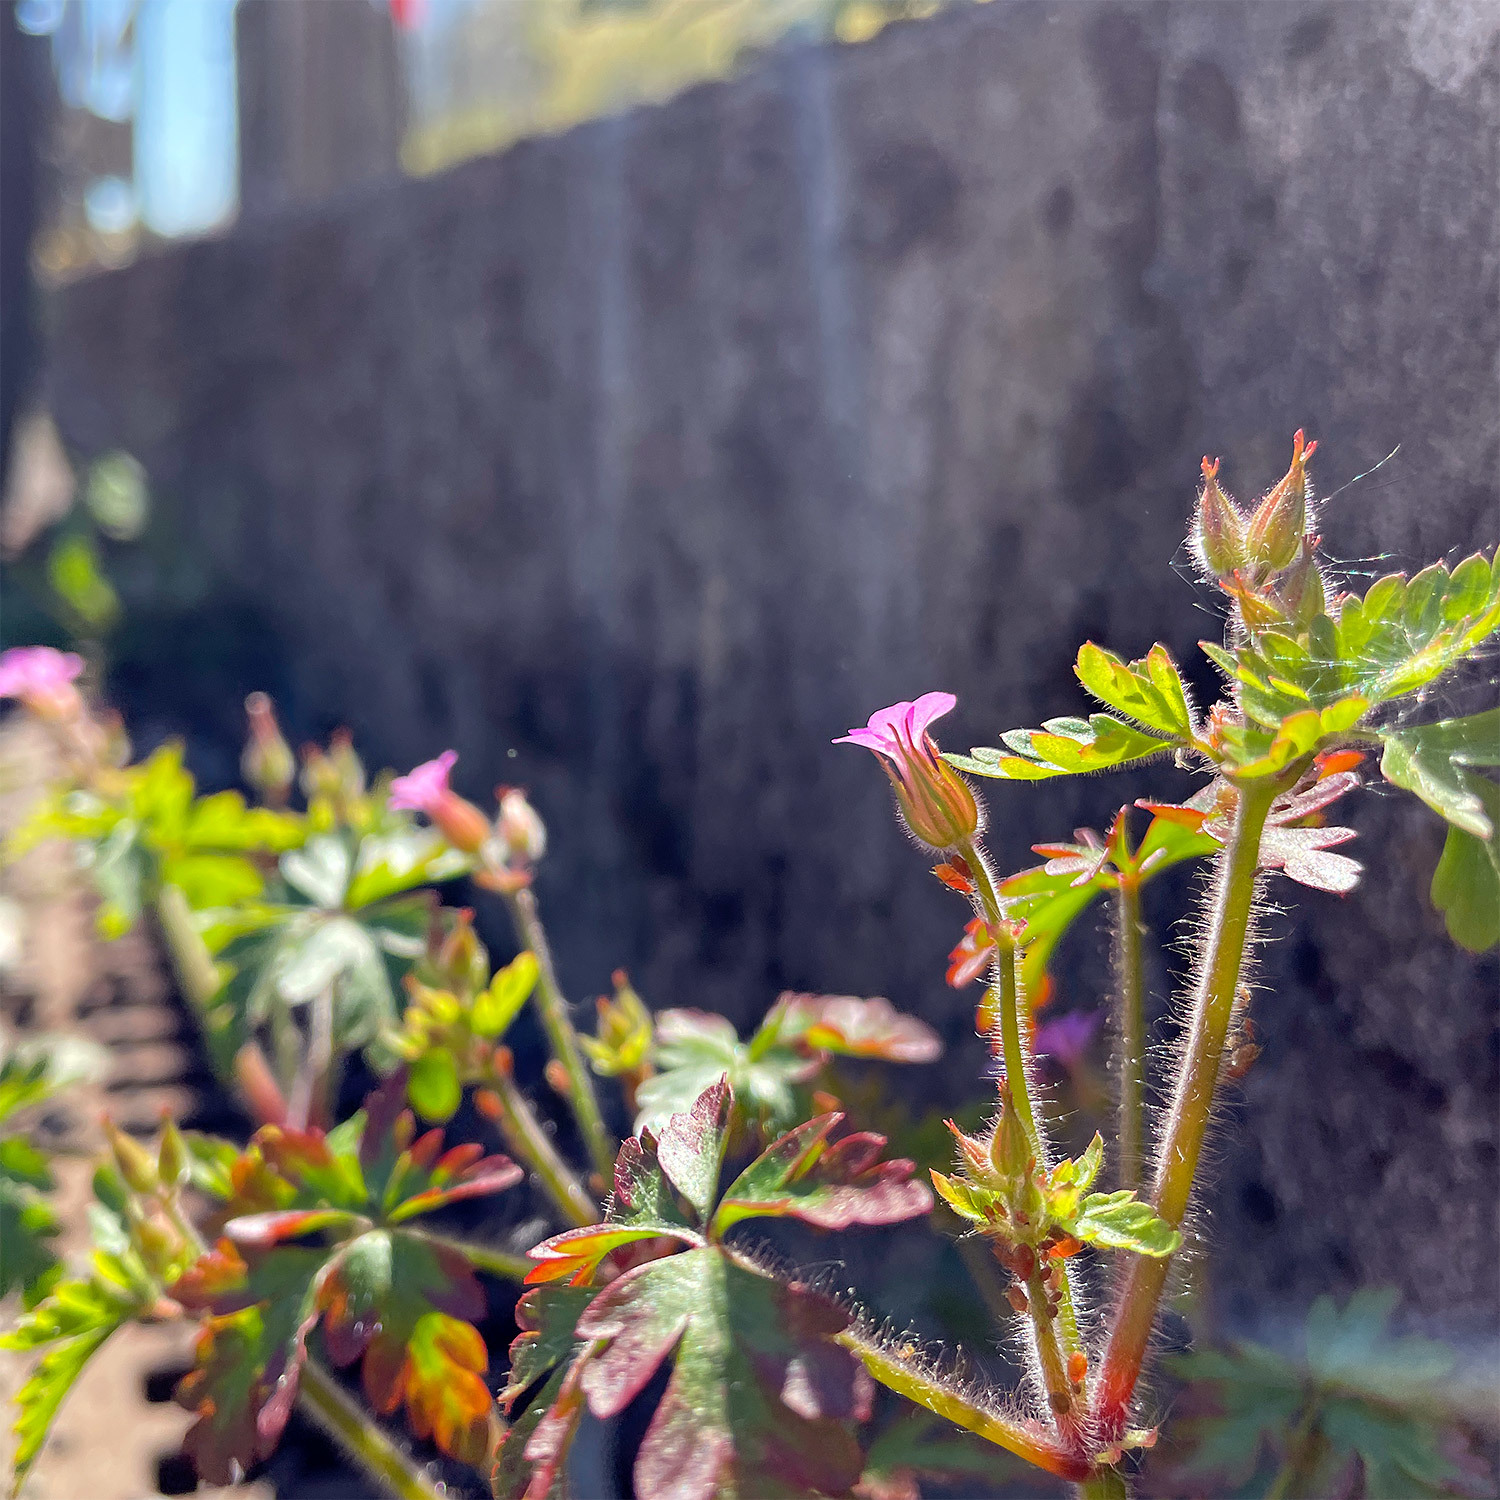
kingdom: Plantae
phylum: Tracheophyta
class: Magnoliopsida
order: Geraniales
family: Geraniaceae
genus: Geranium
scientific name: Geranium purpureum
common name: Little-robin
